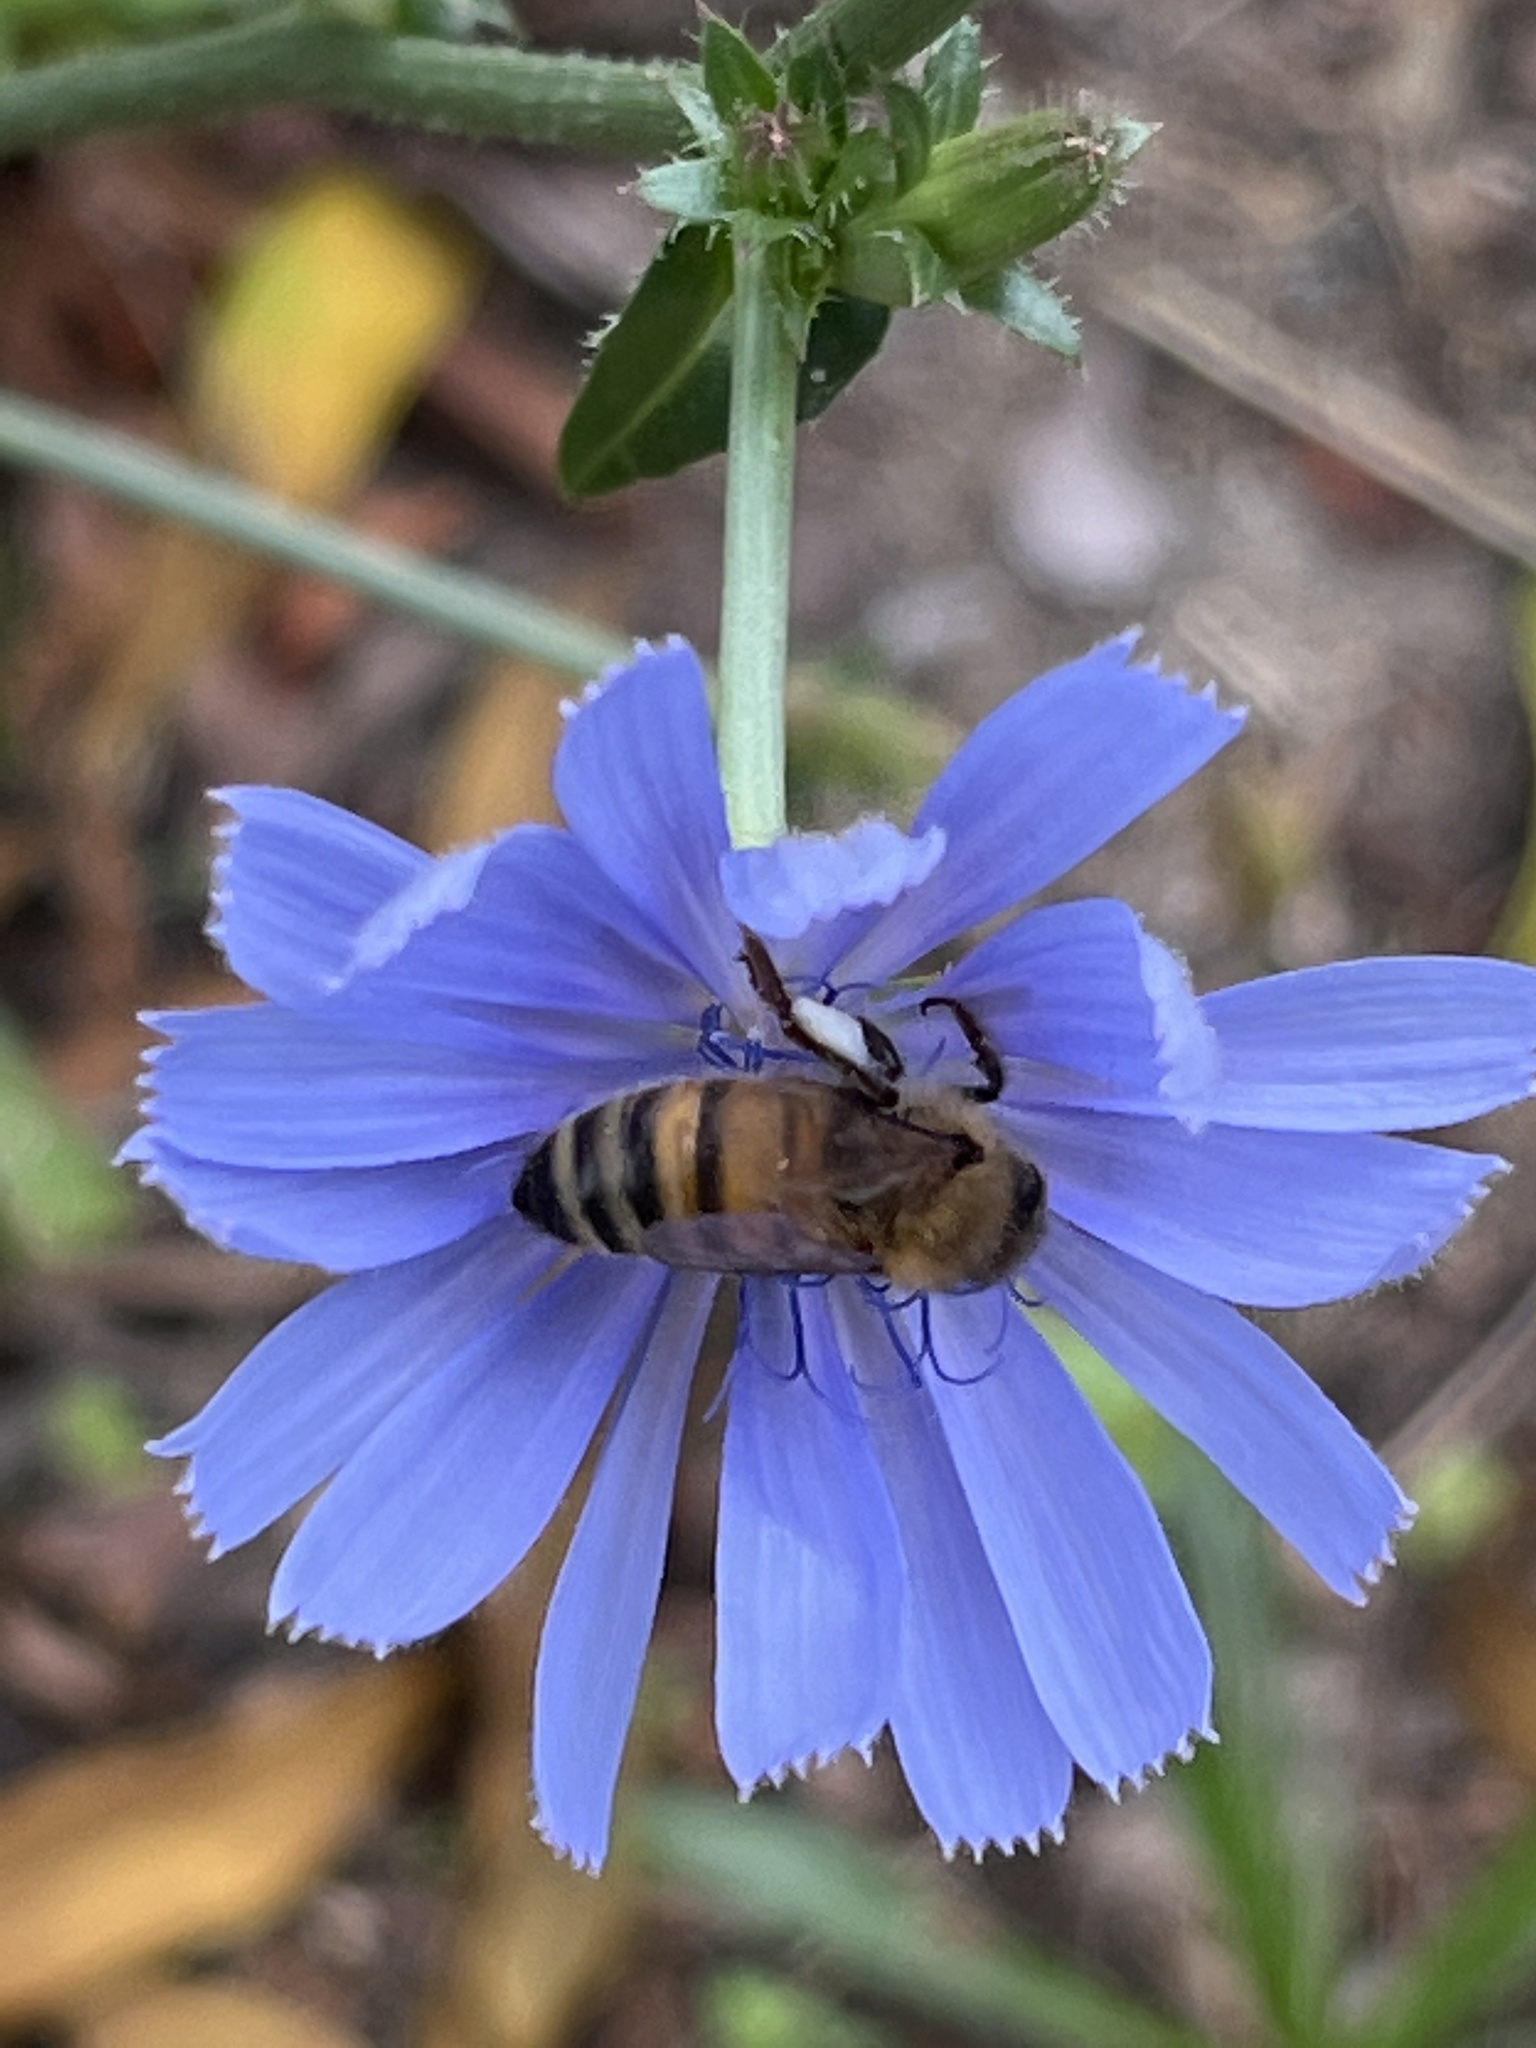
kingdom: Animalia
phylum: Arthropoda
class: Insecta
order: Hymenoptera
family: Apidae
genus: Apis
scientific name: Apis mellifera
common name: Honey bee
